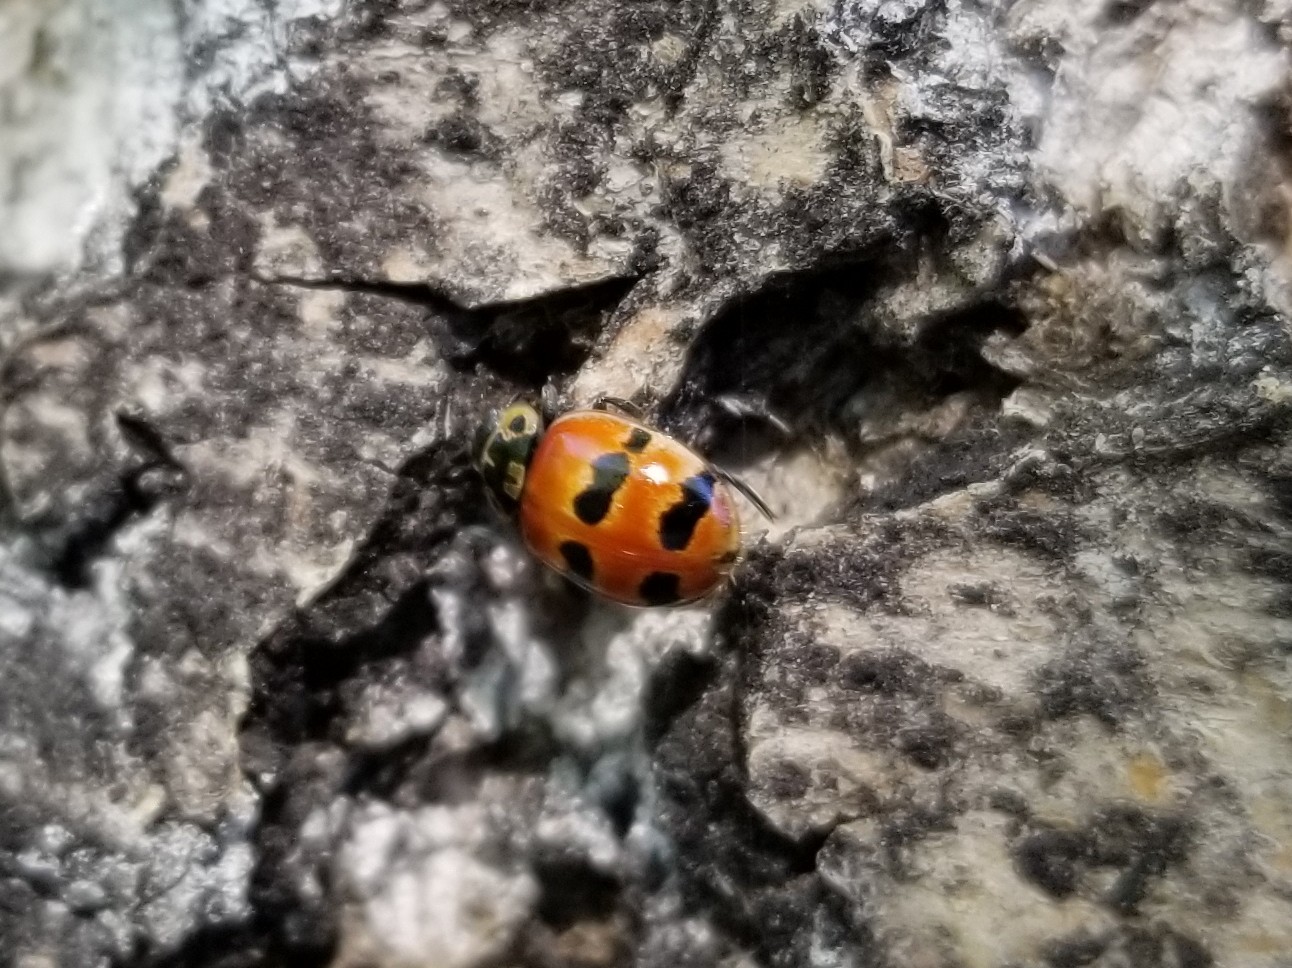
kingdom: Animalia
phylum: Arthropoda
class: Insecta
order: Coleoptera
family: Coccinellidae
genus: Adalia
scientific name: Adalia bipunctata
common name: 2-spot ladybird
